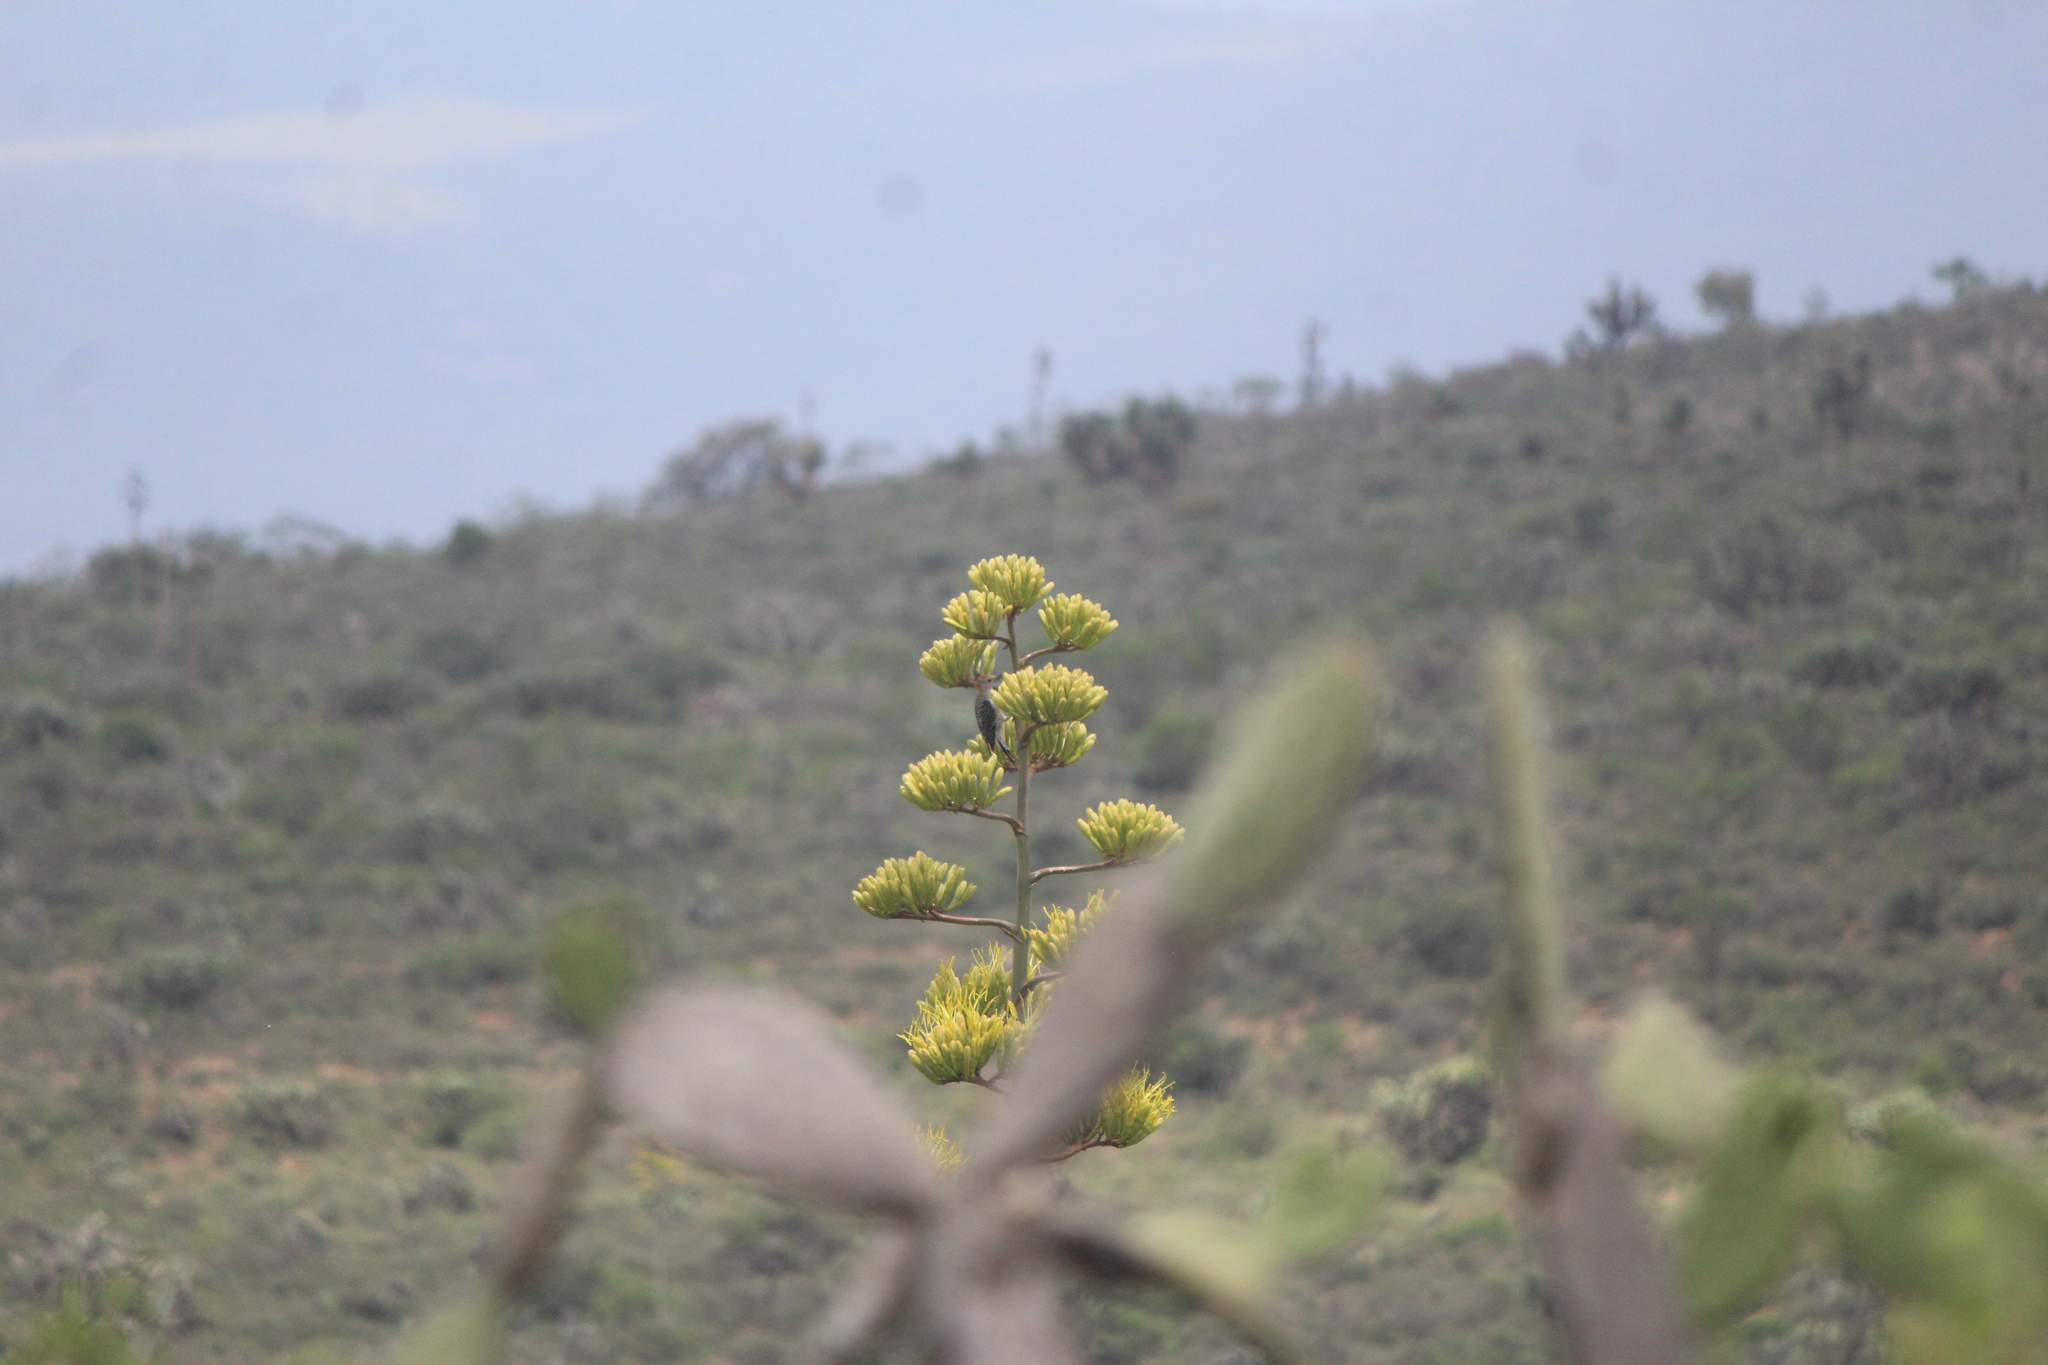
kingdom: Animalia
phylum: Chordata
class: Aves
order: Piciformes
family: Picidae
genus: Melanerpes
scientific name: Melanerpes aurifrons
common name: Golden-fronted woodpecker
